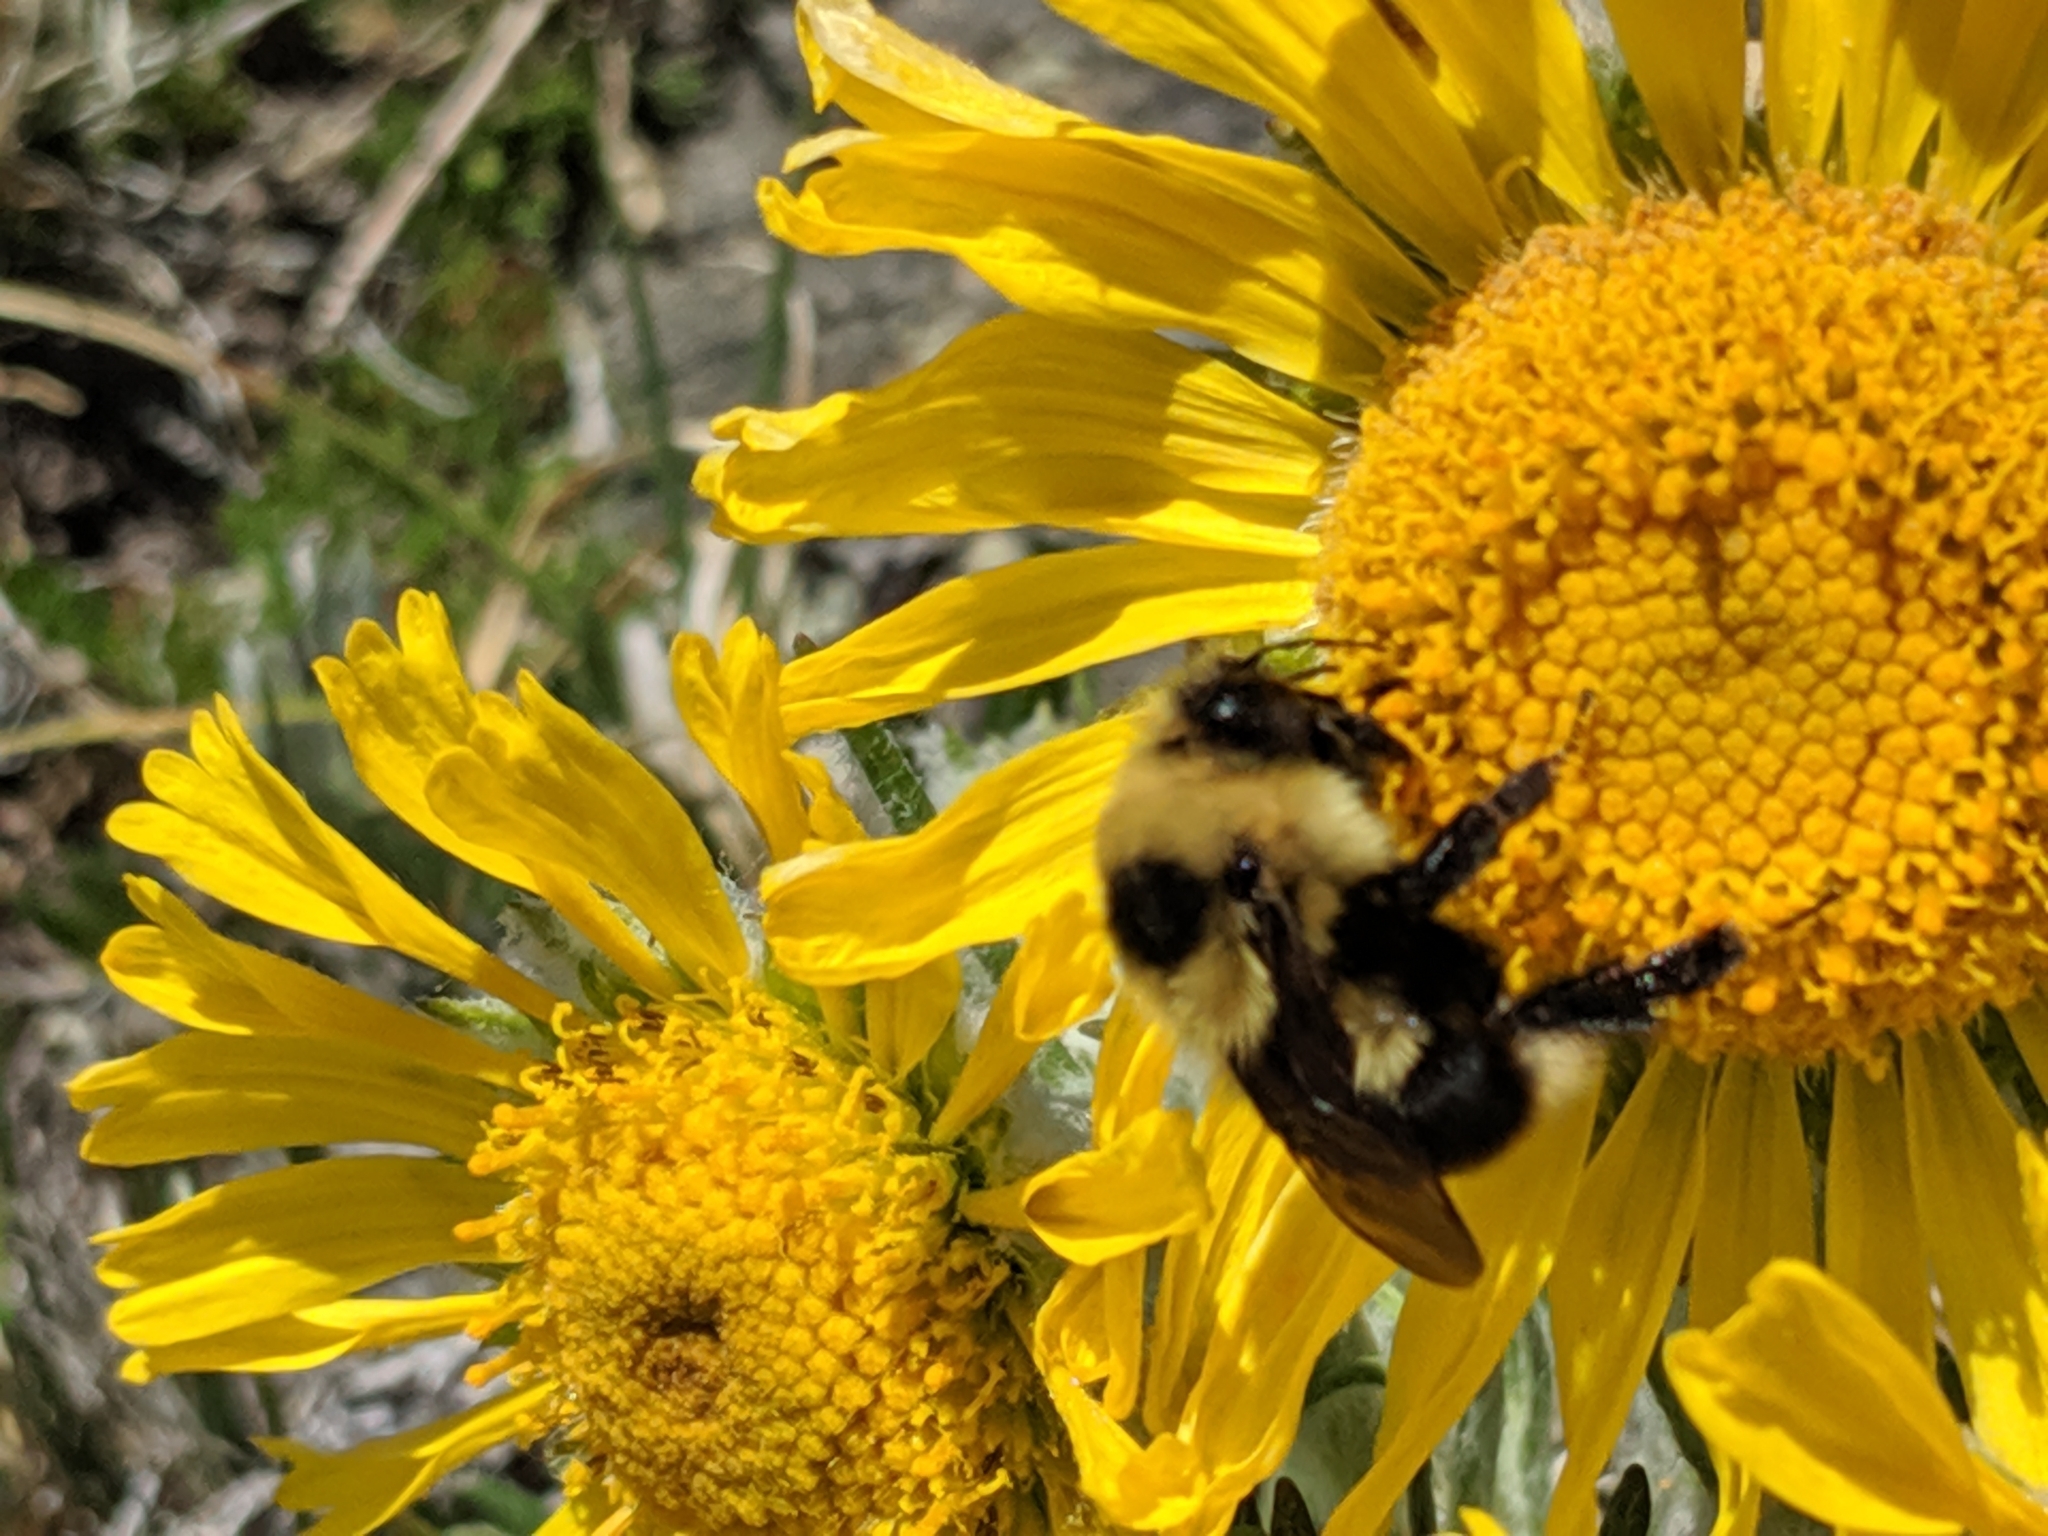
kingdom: Animalia
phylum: Arthropoda
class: Insecta
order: Hymenoptera
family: Apidae
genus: Bombus
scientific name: Bombus rufocinctus
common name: Red-belted bumble bee
